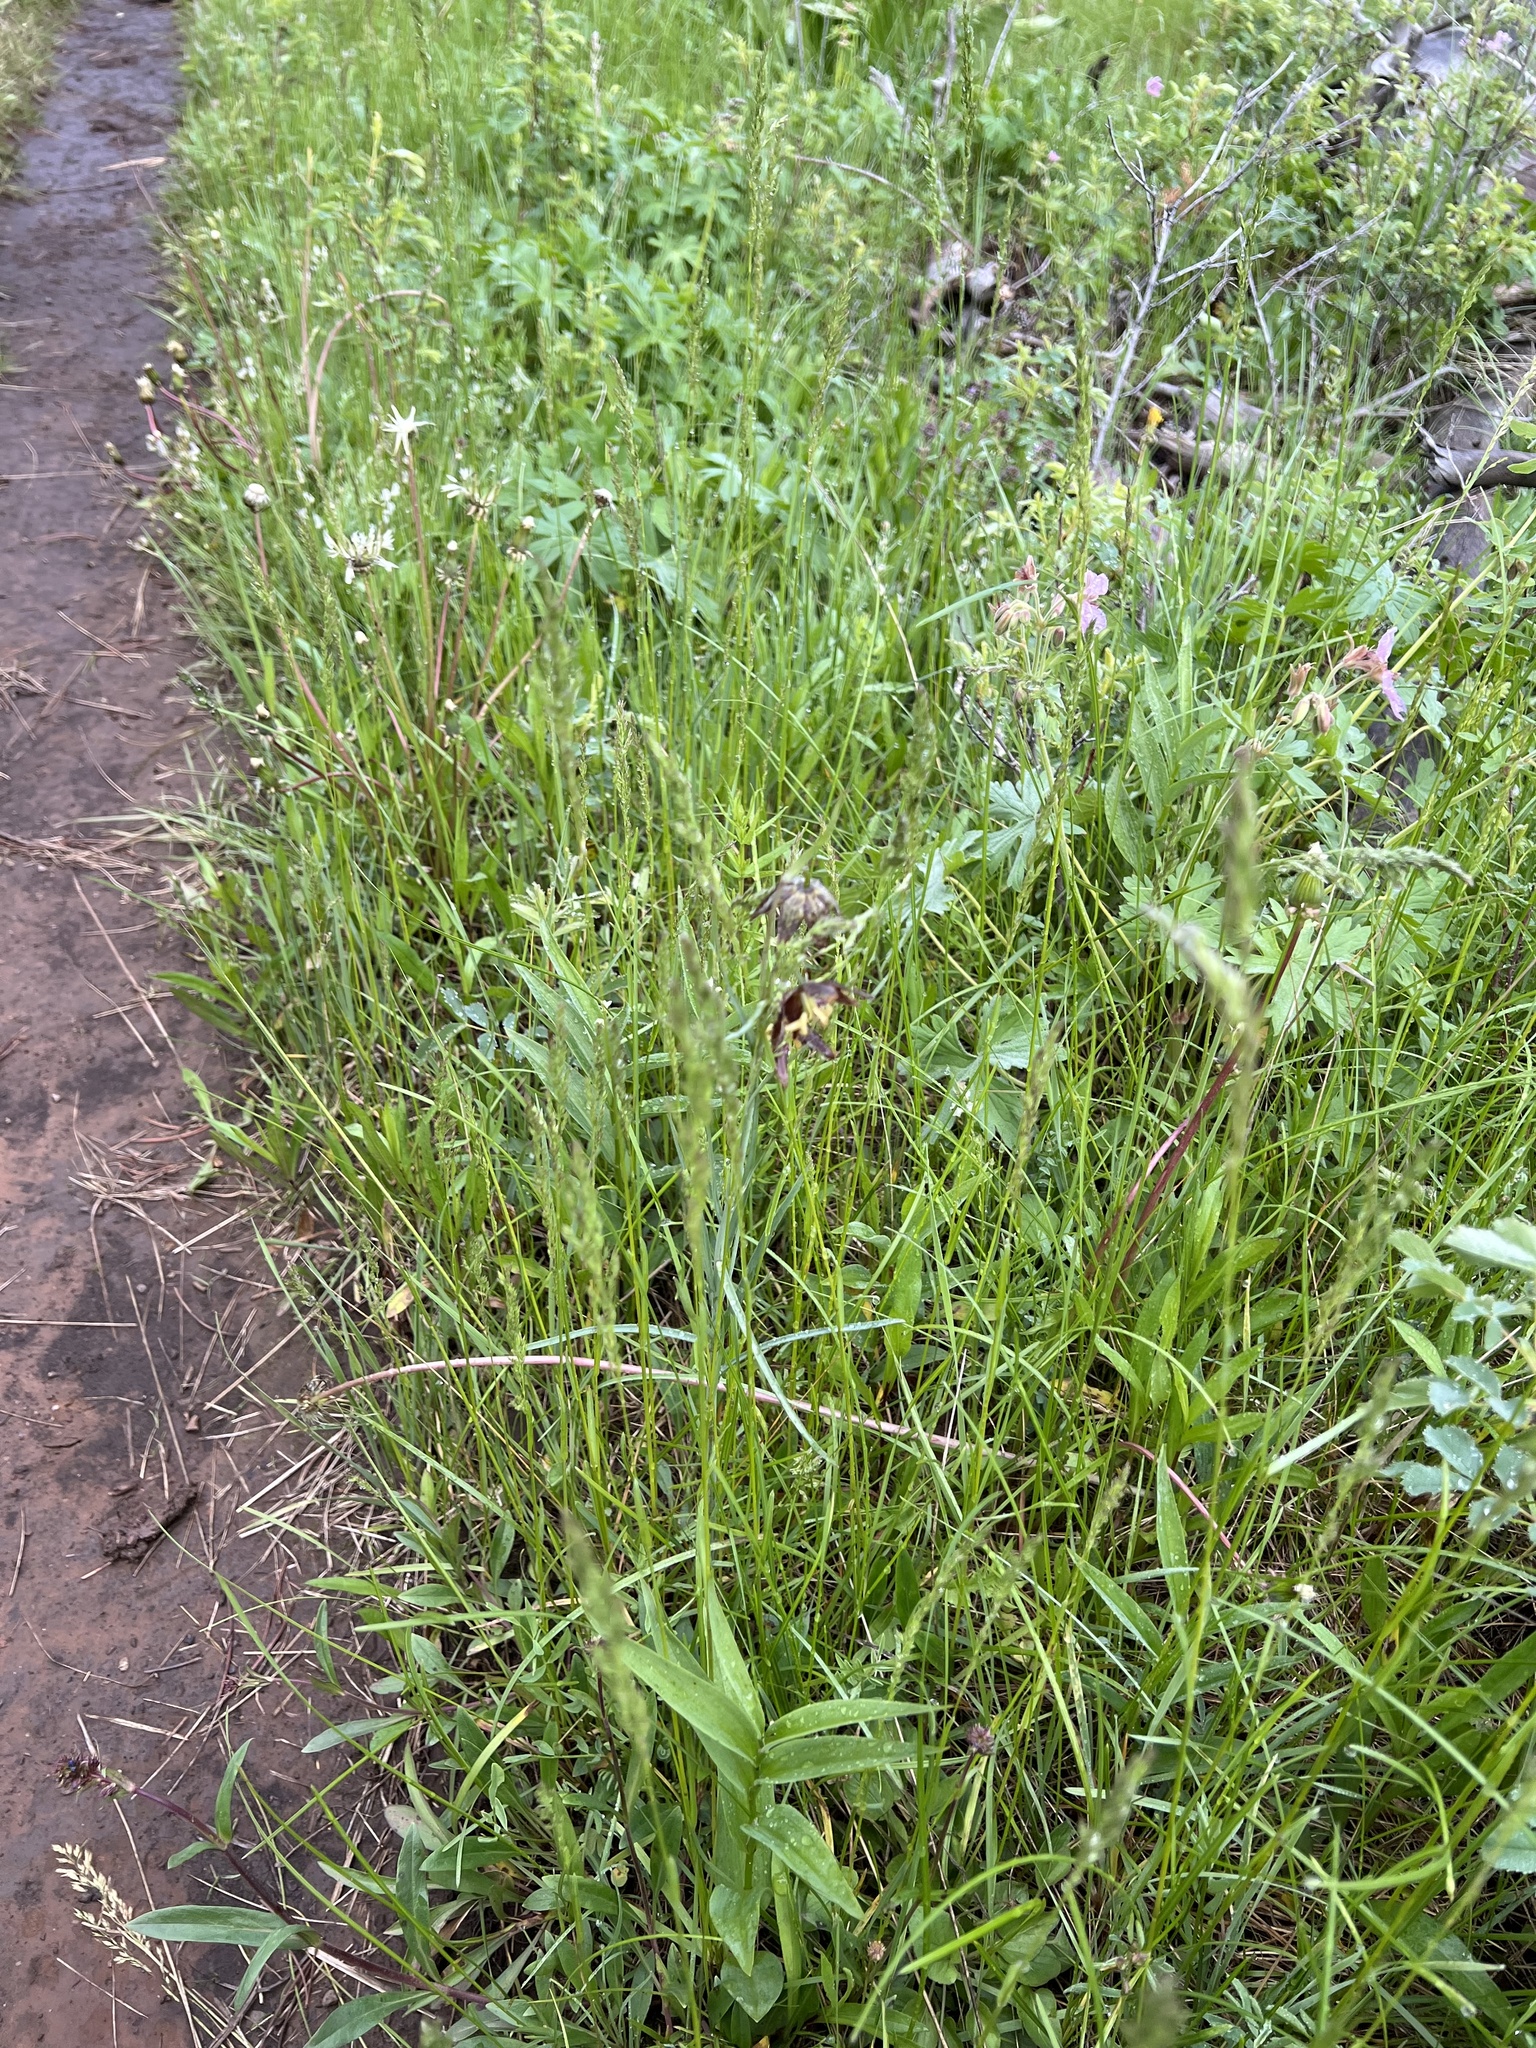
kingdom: Plantae
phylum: Tracheophyta
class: Liliopsida
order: Liliales
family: Liliaceae
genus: Fritillaria
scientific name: Fritillaria atropurpurea
